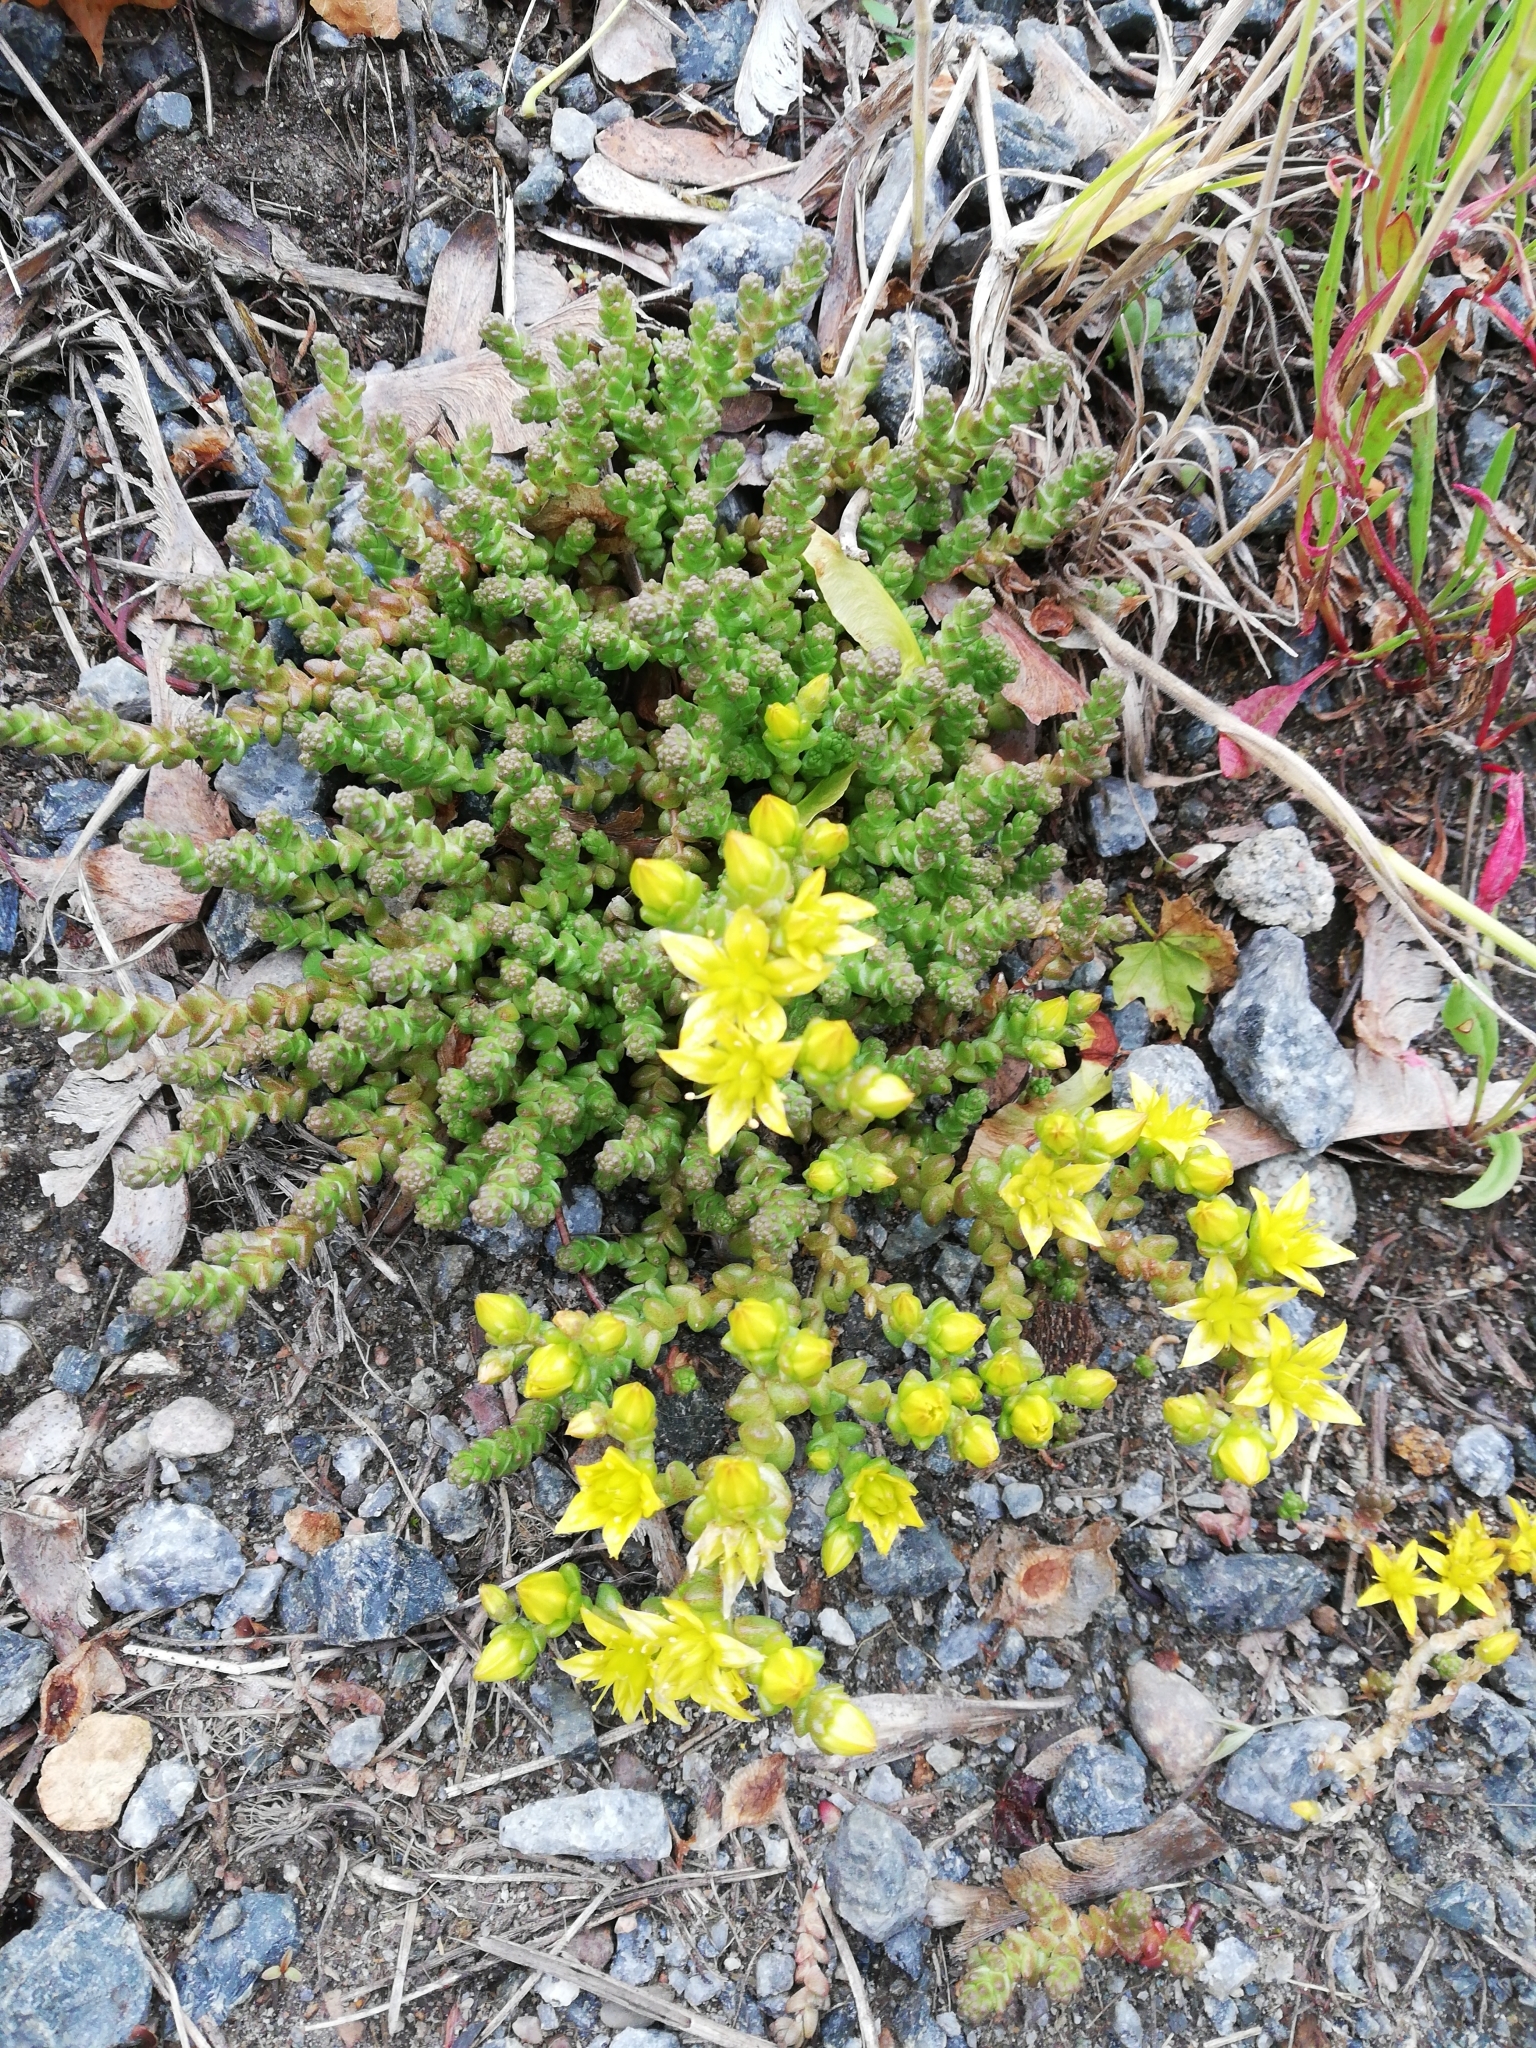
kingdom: Plantae
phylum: Tracheophyta
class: Magnoliopsida
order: Saxifragales
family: Crassulaceae
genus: Sedum
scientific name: Sedum acre
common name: Biting stonecrop
